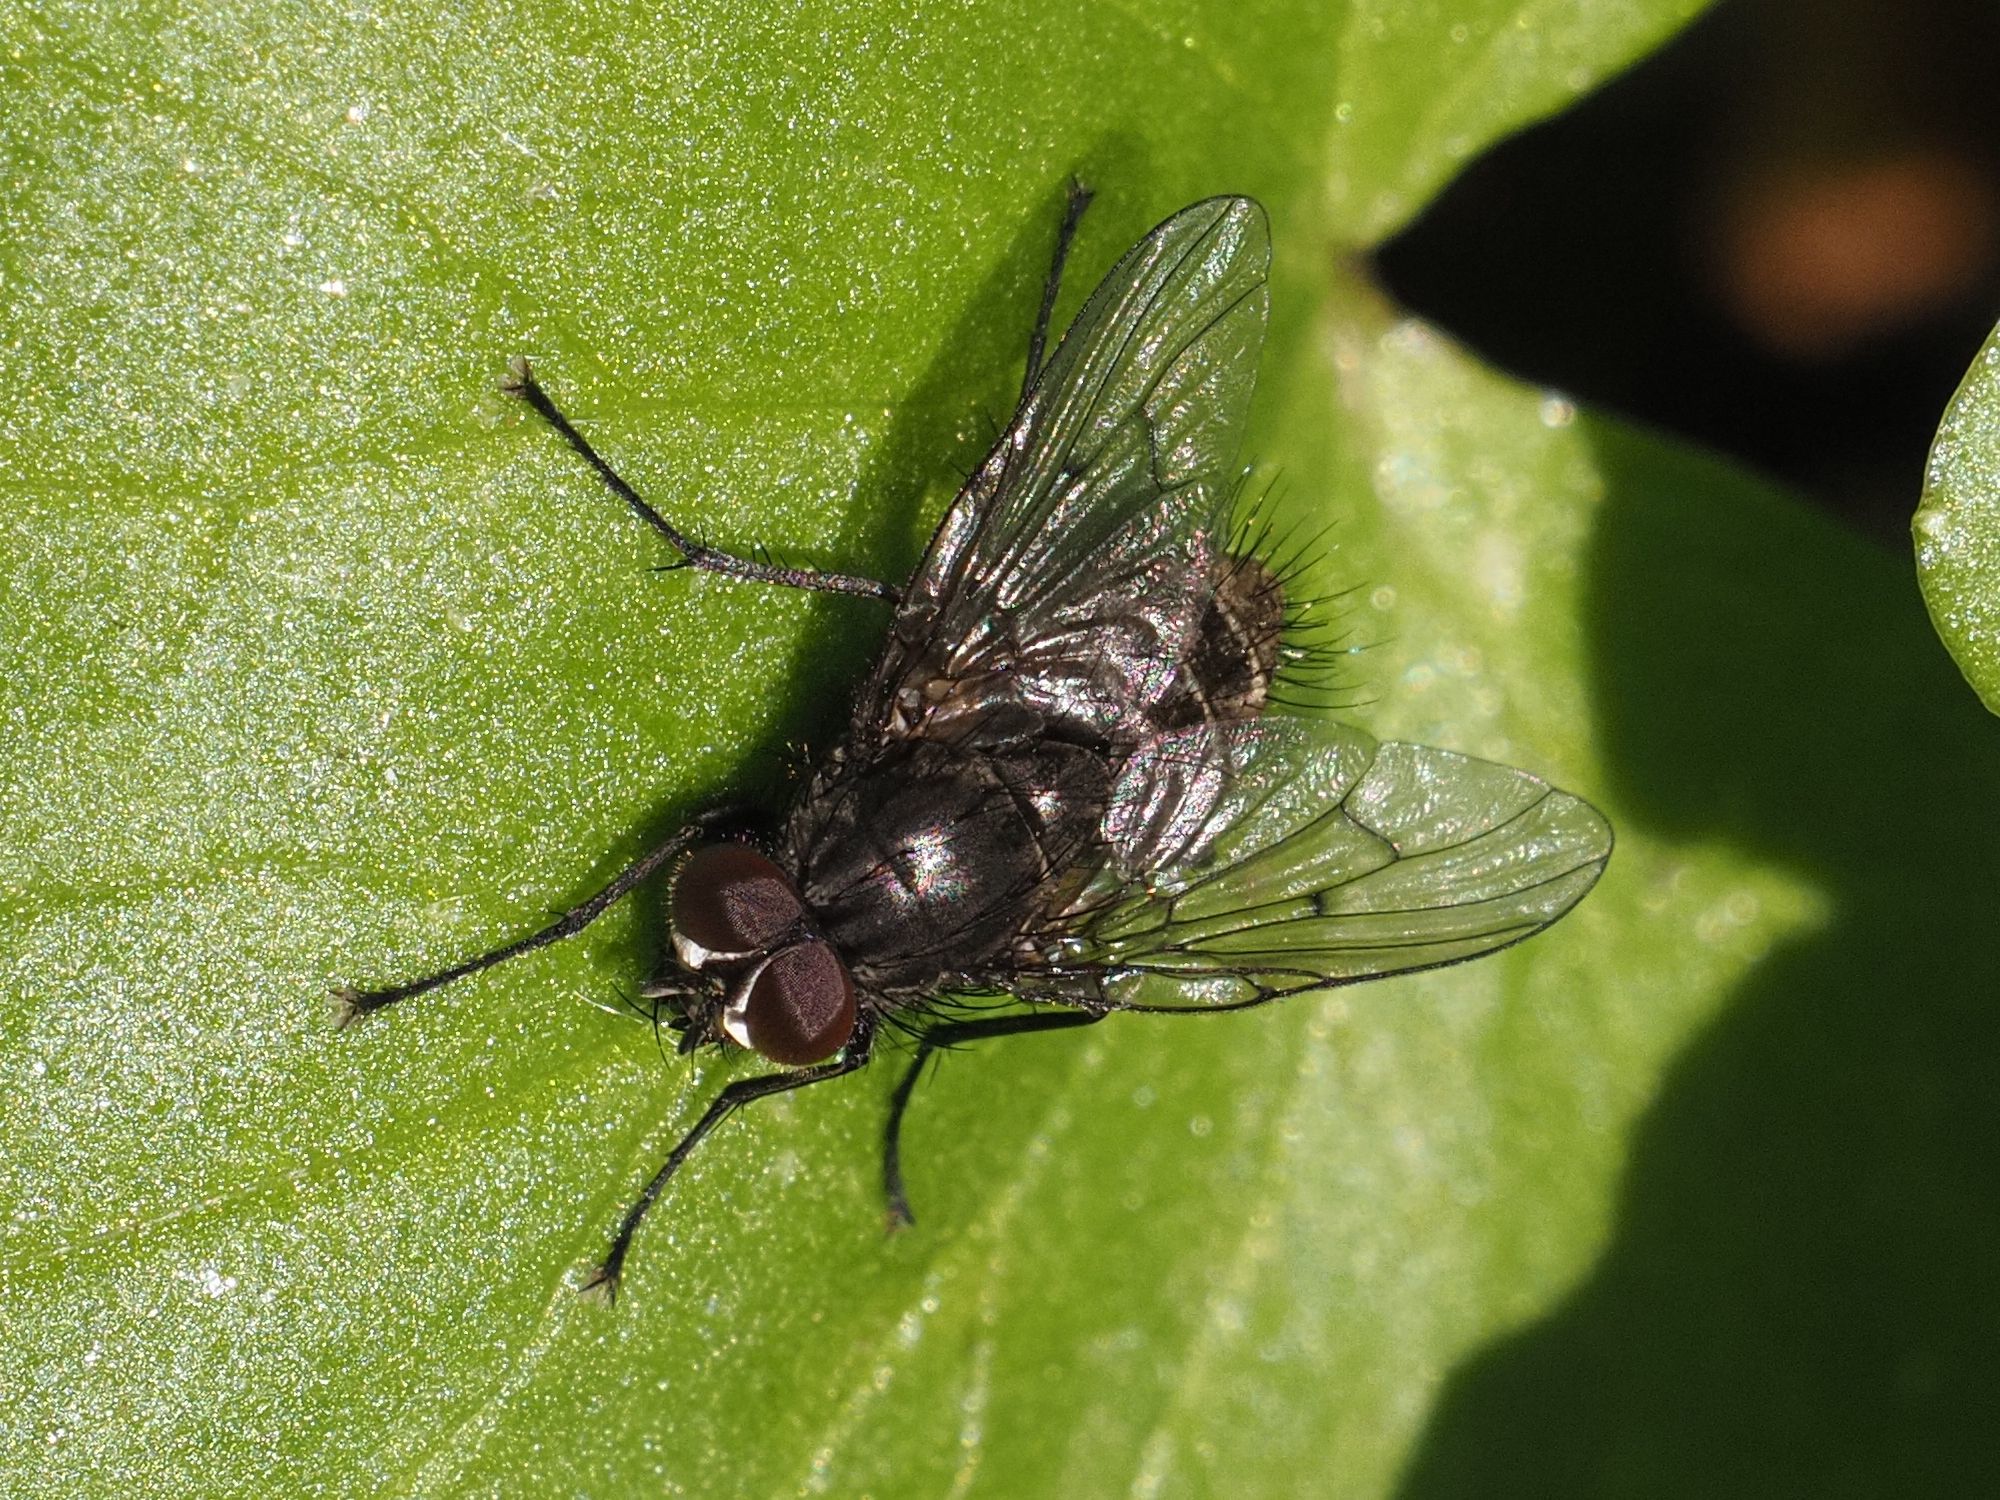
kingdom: Animalia
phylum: Arthropoda
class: Insecta
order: Diptera
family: Muscidae
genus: Helina
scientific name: Helina evecta
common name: Muscid fly
